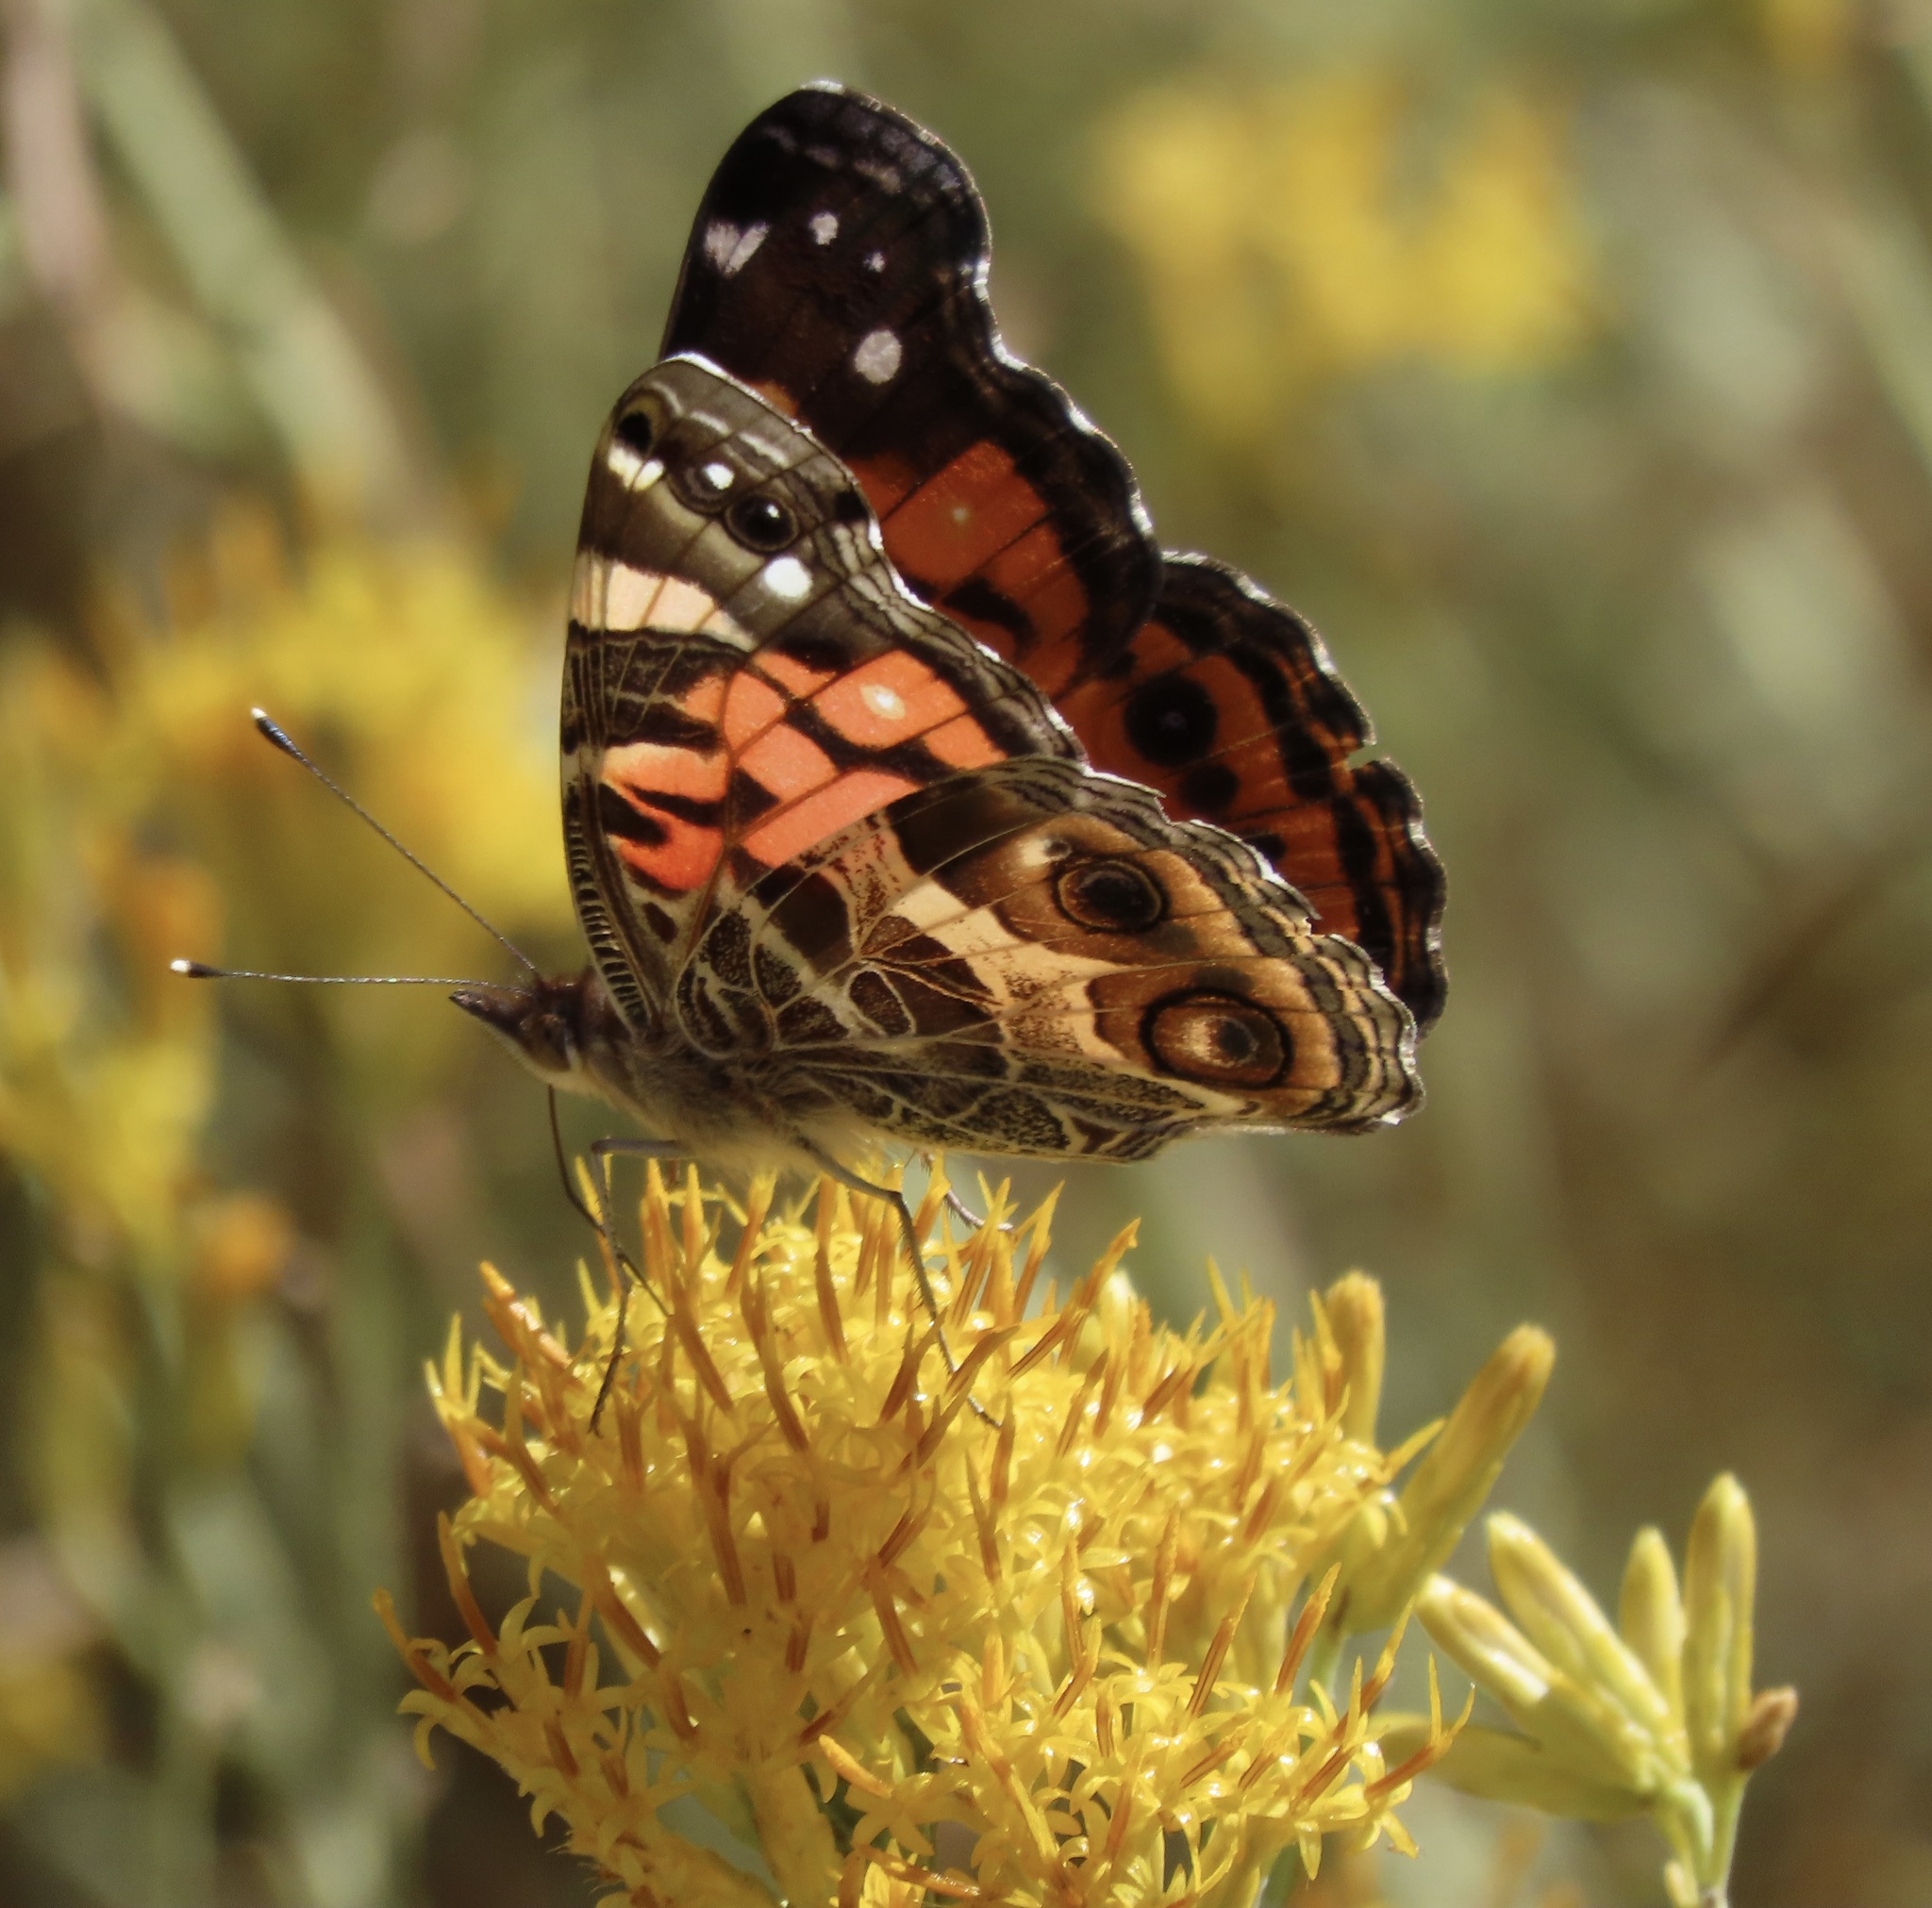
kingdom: Animalia
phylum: Arthropoda
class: Insecta
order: Lepidoptera
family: Nymphalidae
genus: Vanessa
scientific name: Vanessa virginiensis
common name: American lady
